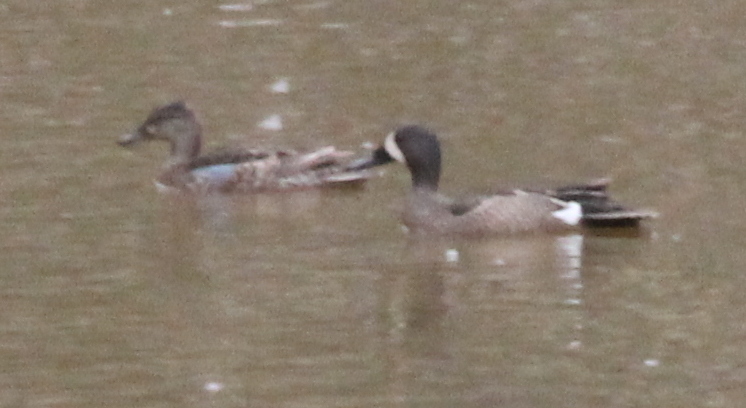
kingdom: Animalia
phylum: Chordata
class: Aves
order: Anseriformes
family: Anatidae
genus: Spatula
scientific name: Spatula discors
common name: Blue-winged teal
